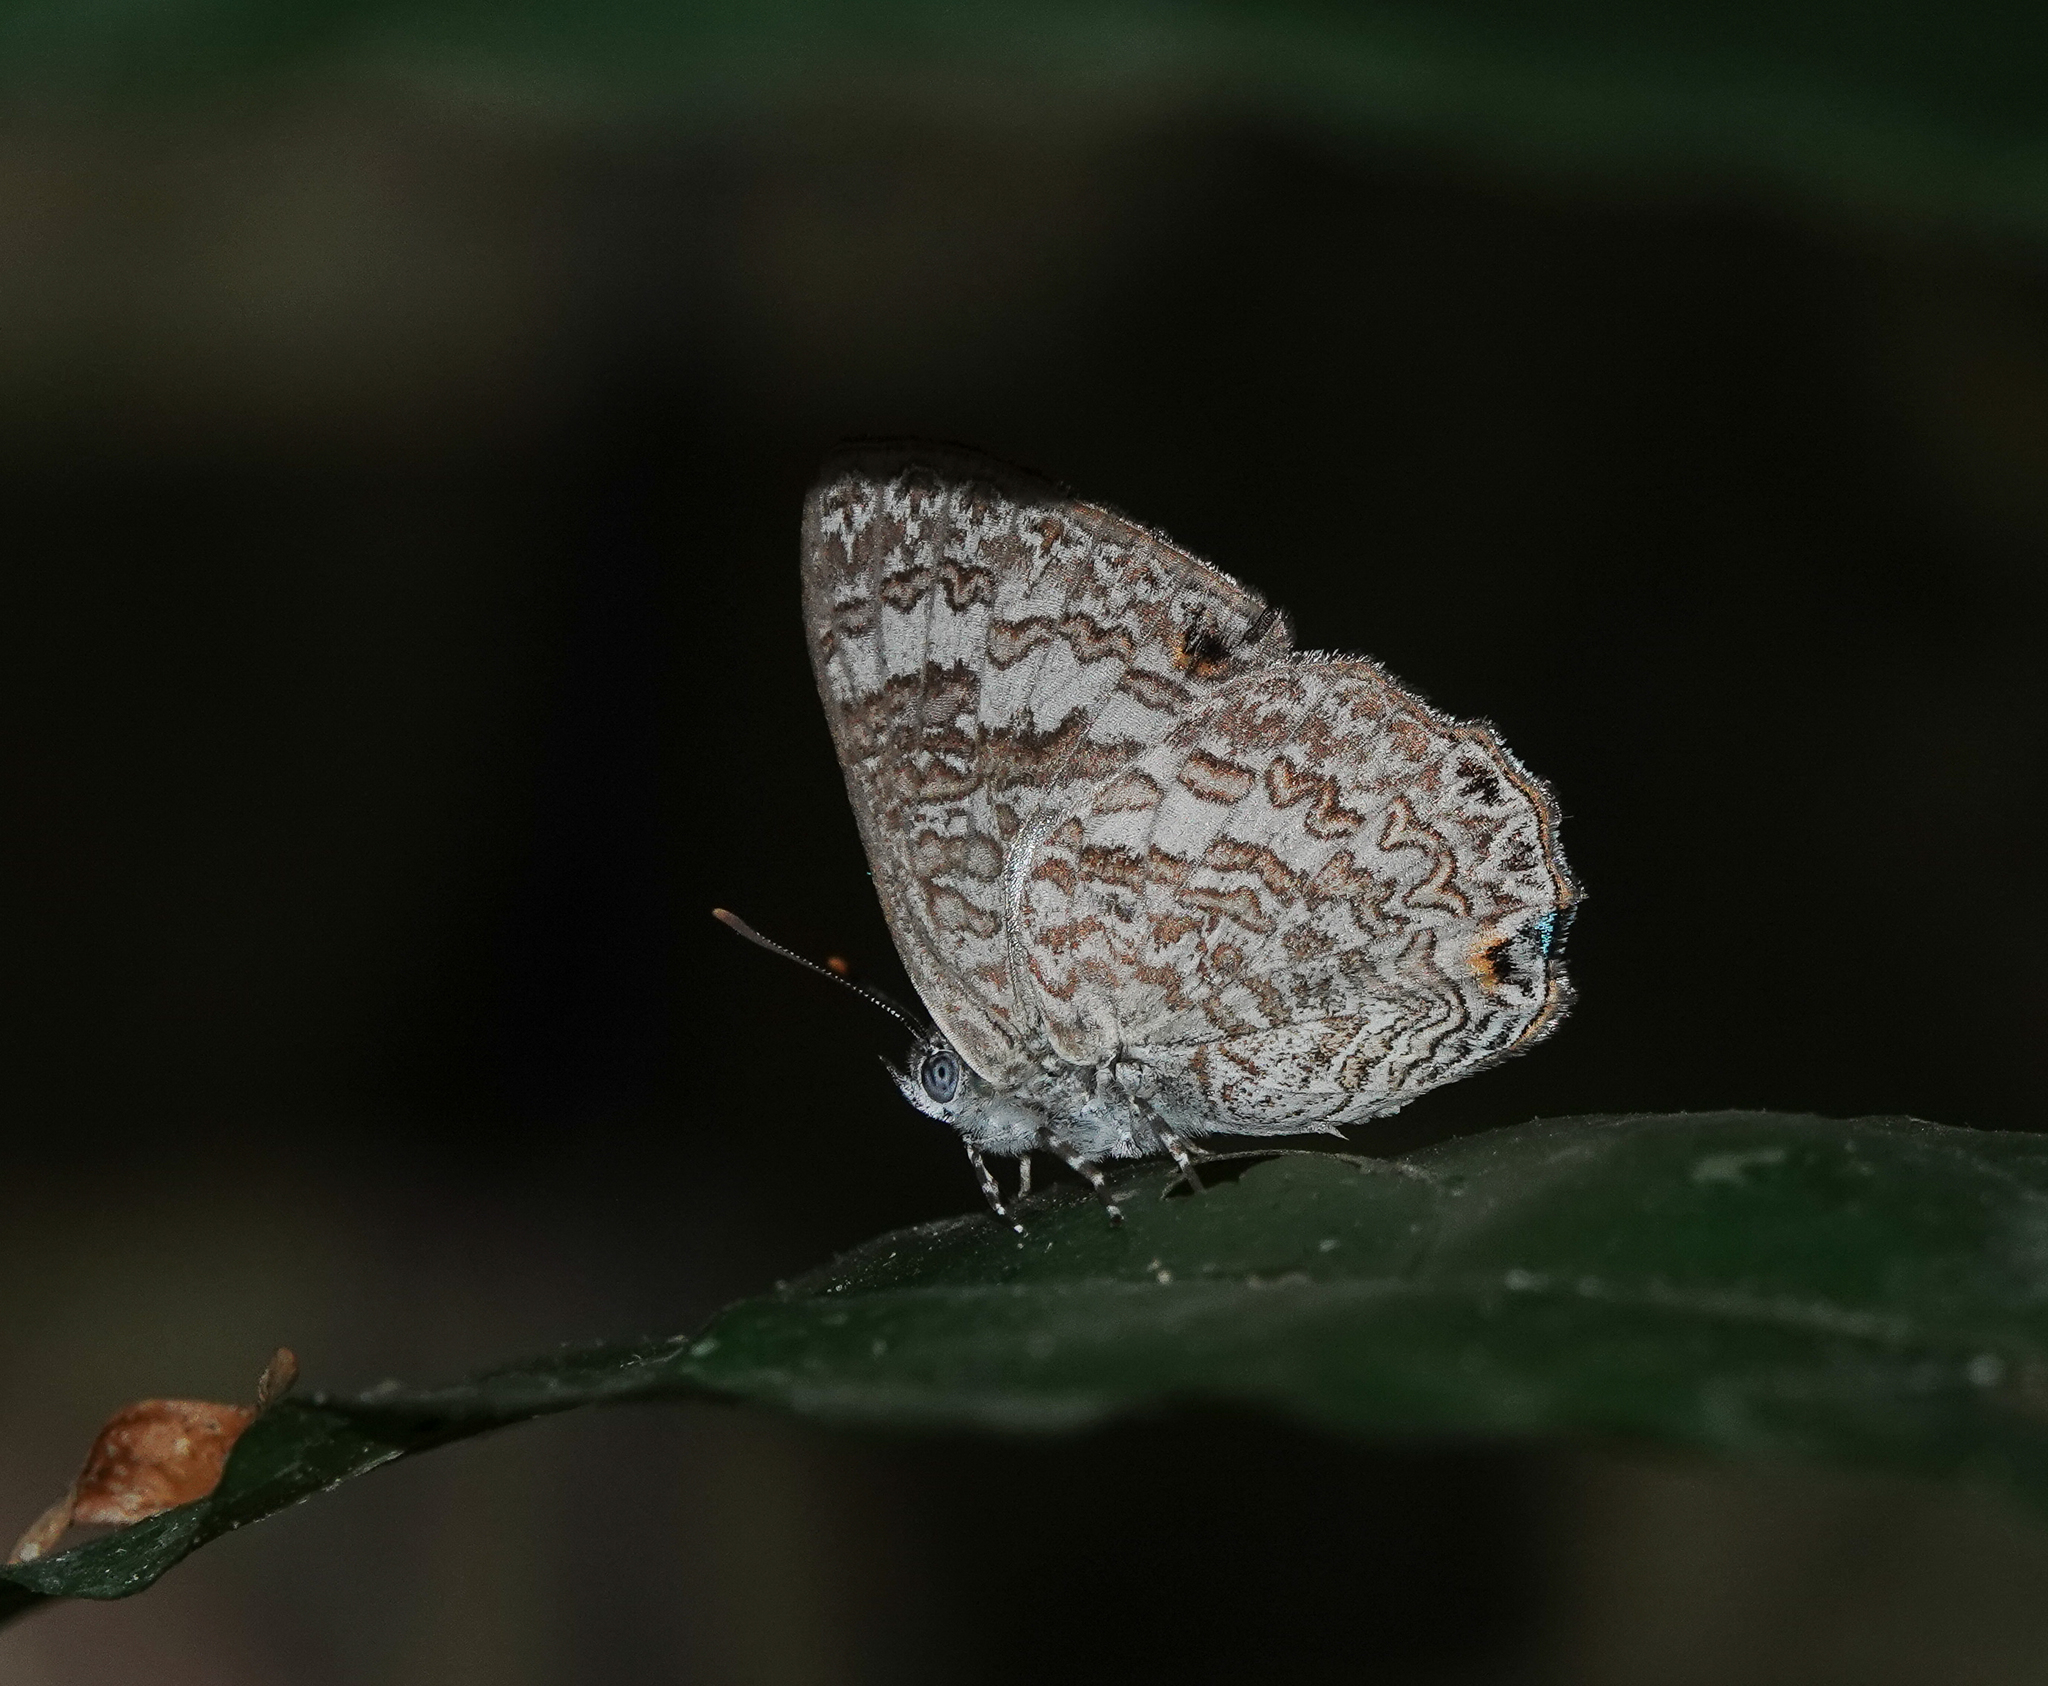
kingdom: Animalia
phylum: Arthropoda
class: Insecta
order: Lepidoptera
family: Lycaenidae
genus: Poritia
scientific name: Poritia hewitsoni
